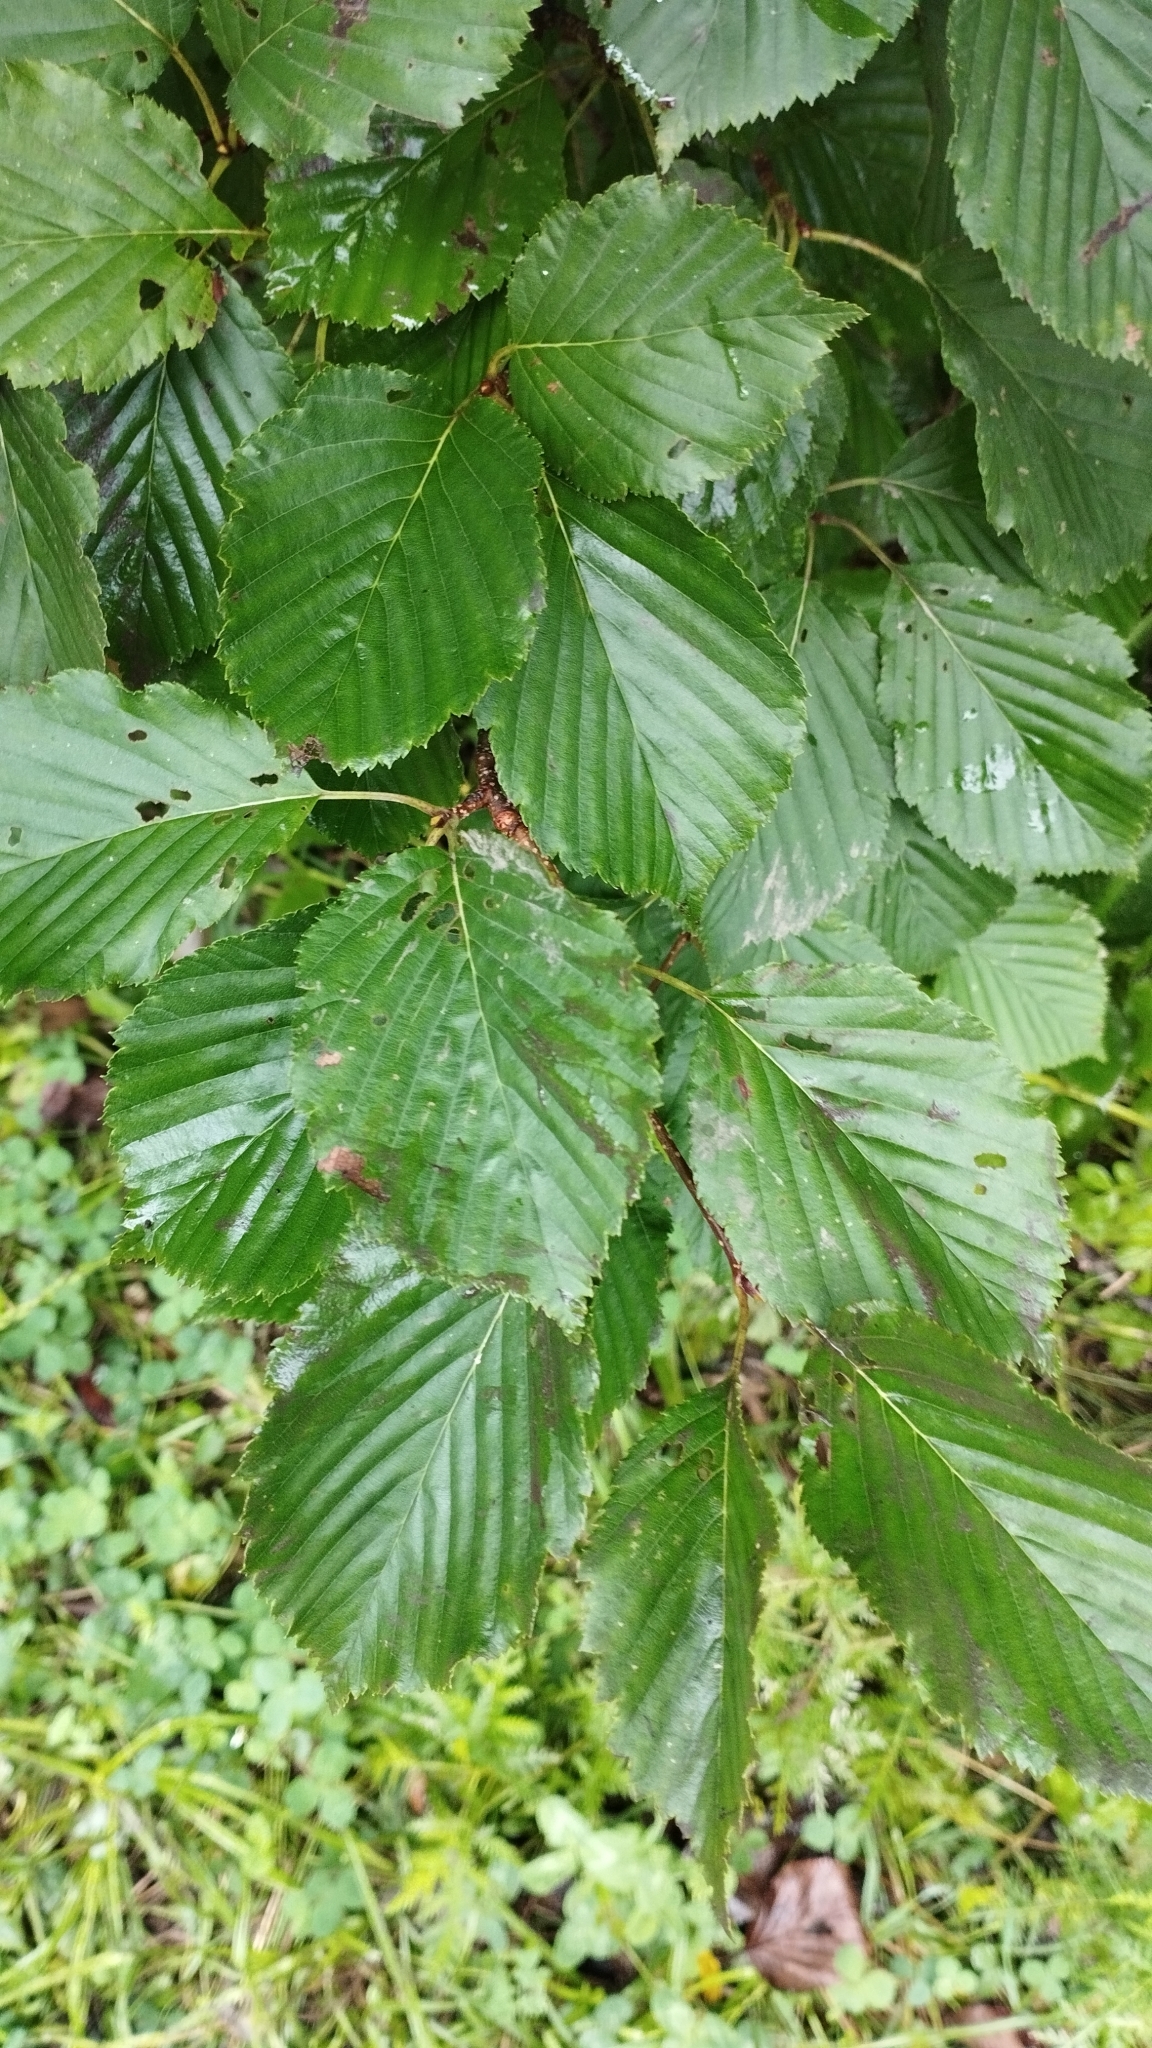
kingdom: Plantae
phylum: Tracheophyta
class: Magnoliopsida
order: Rosales
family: Rosaceae
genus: Sorbus
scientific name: Sorbus alnifolia
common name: Mountain-ash
